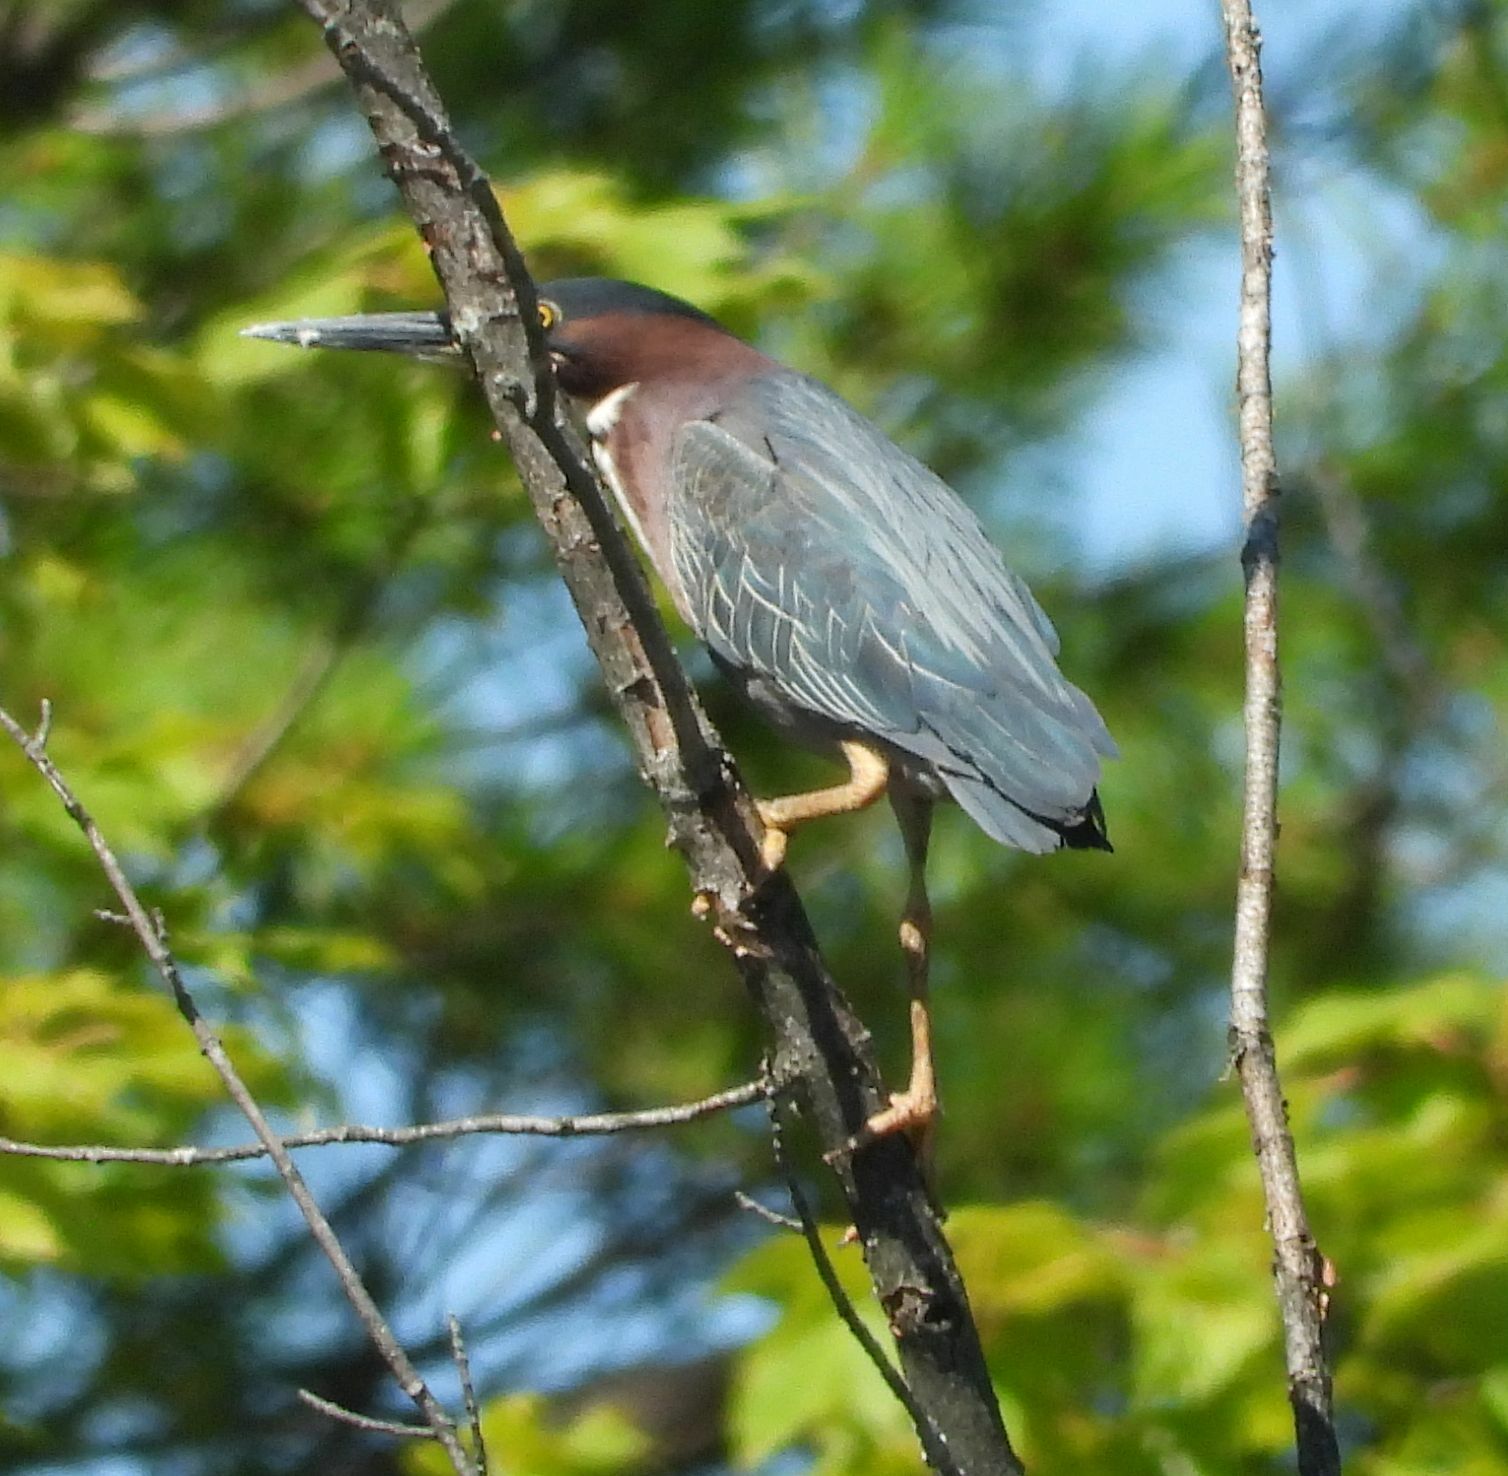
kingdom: Animalia
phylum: Chordata
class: Aves
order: Pelecaniformes
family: Ardeidae
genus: Butorides
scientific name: Butorides virescens
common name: Green heron
